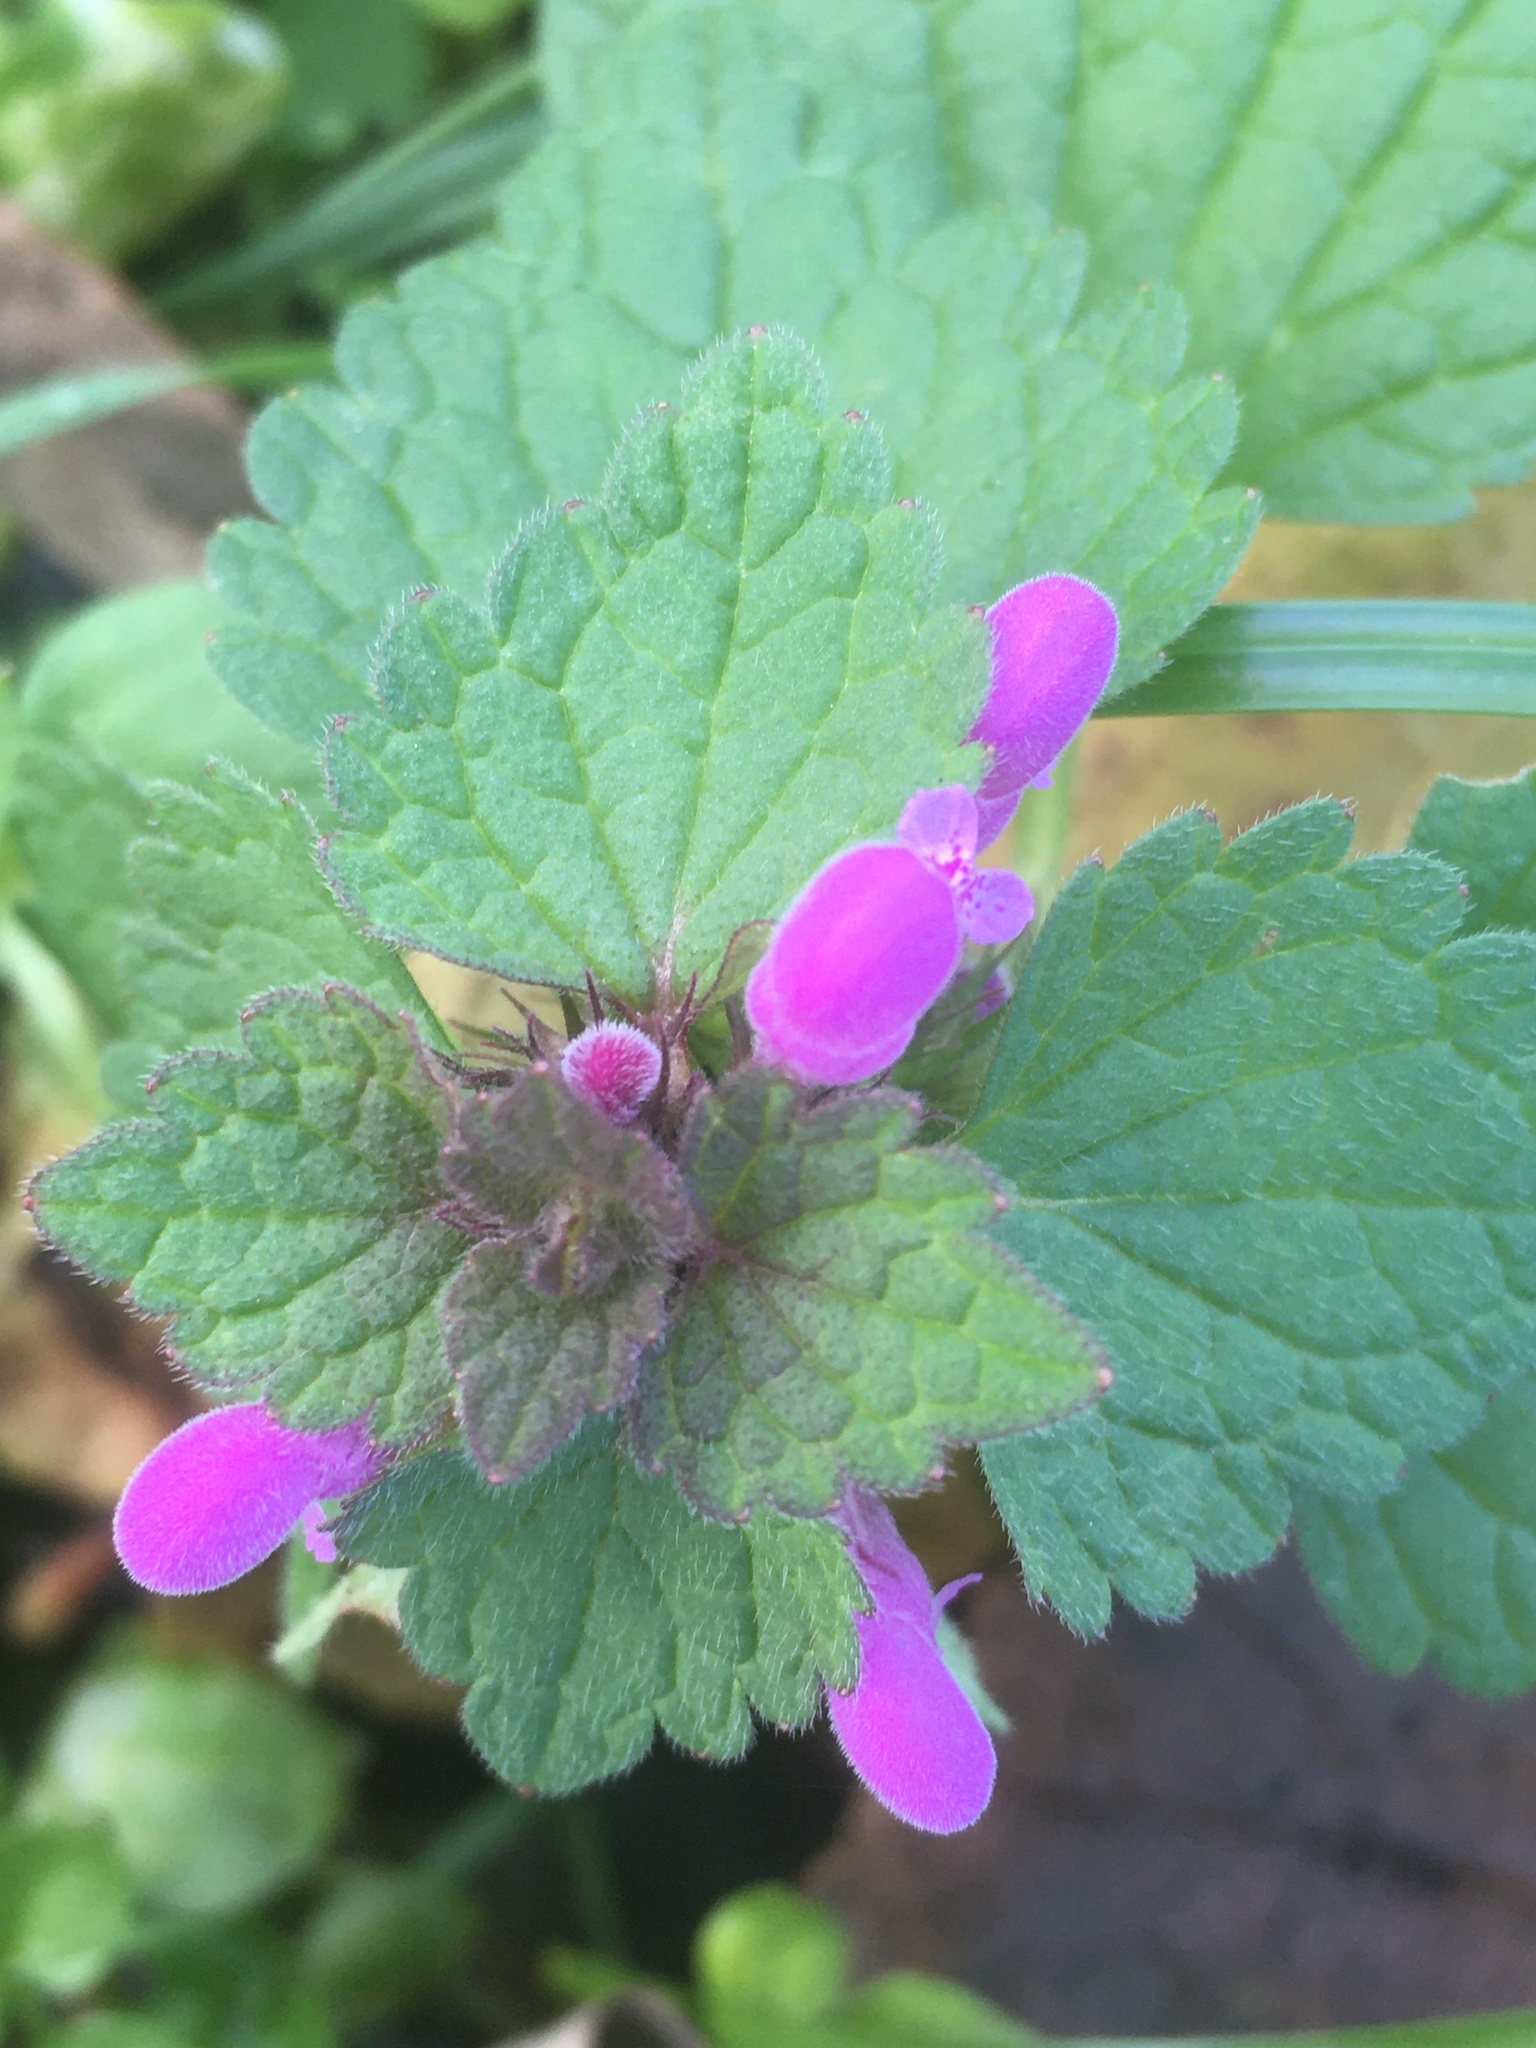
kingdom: Plantae
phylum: Tracheophyta
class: Magnoliopsida
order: Lamiales
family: Lamiaceae
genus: Lamium
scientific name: Lamium purpureum
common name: Red dead-nettle
